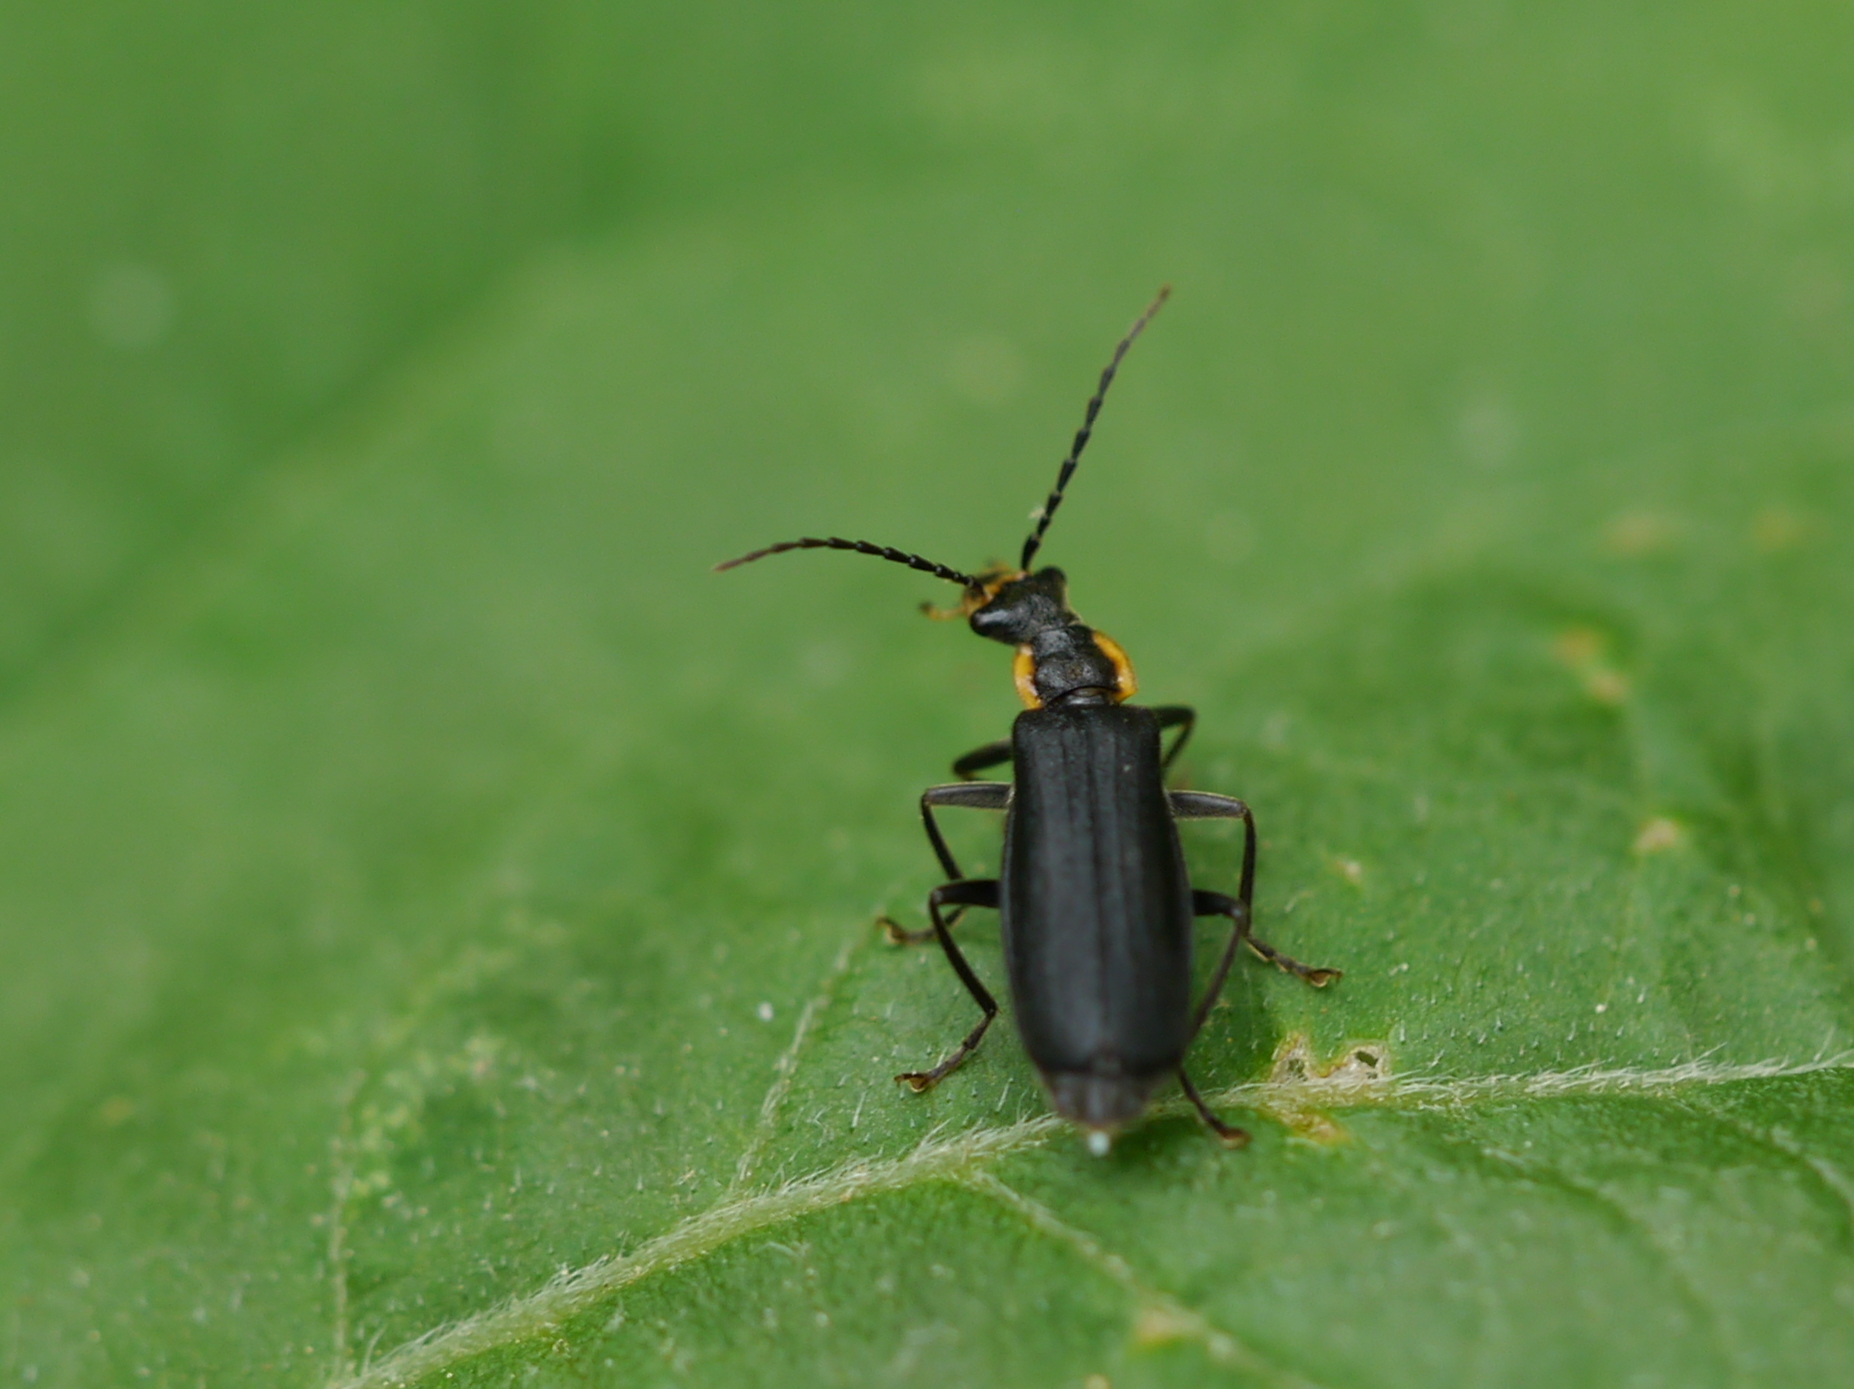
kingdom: Animalia
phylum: Arthropoda
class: Insecta
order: Coleoptera
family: Cantharidae
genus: Podabrus
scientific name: Podabrus rugosulus
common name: Wrinkled soldier beetle
